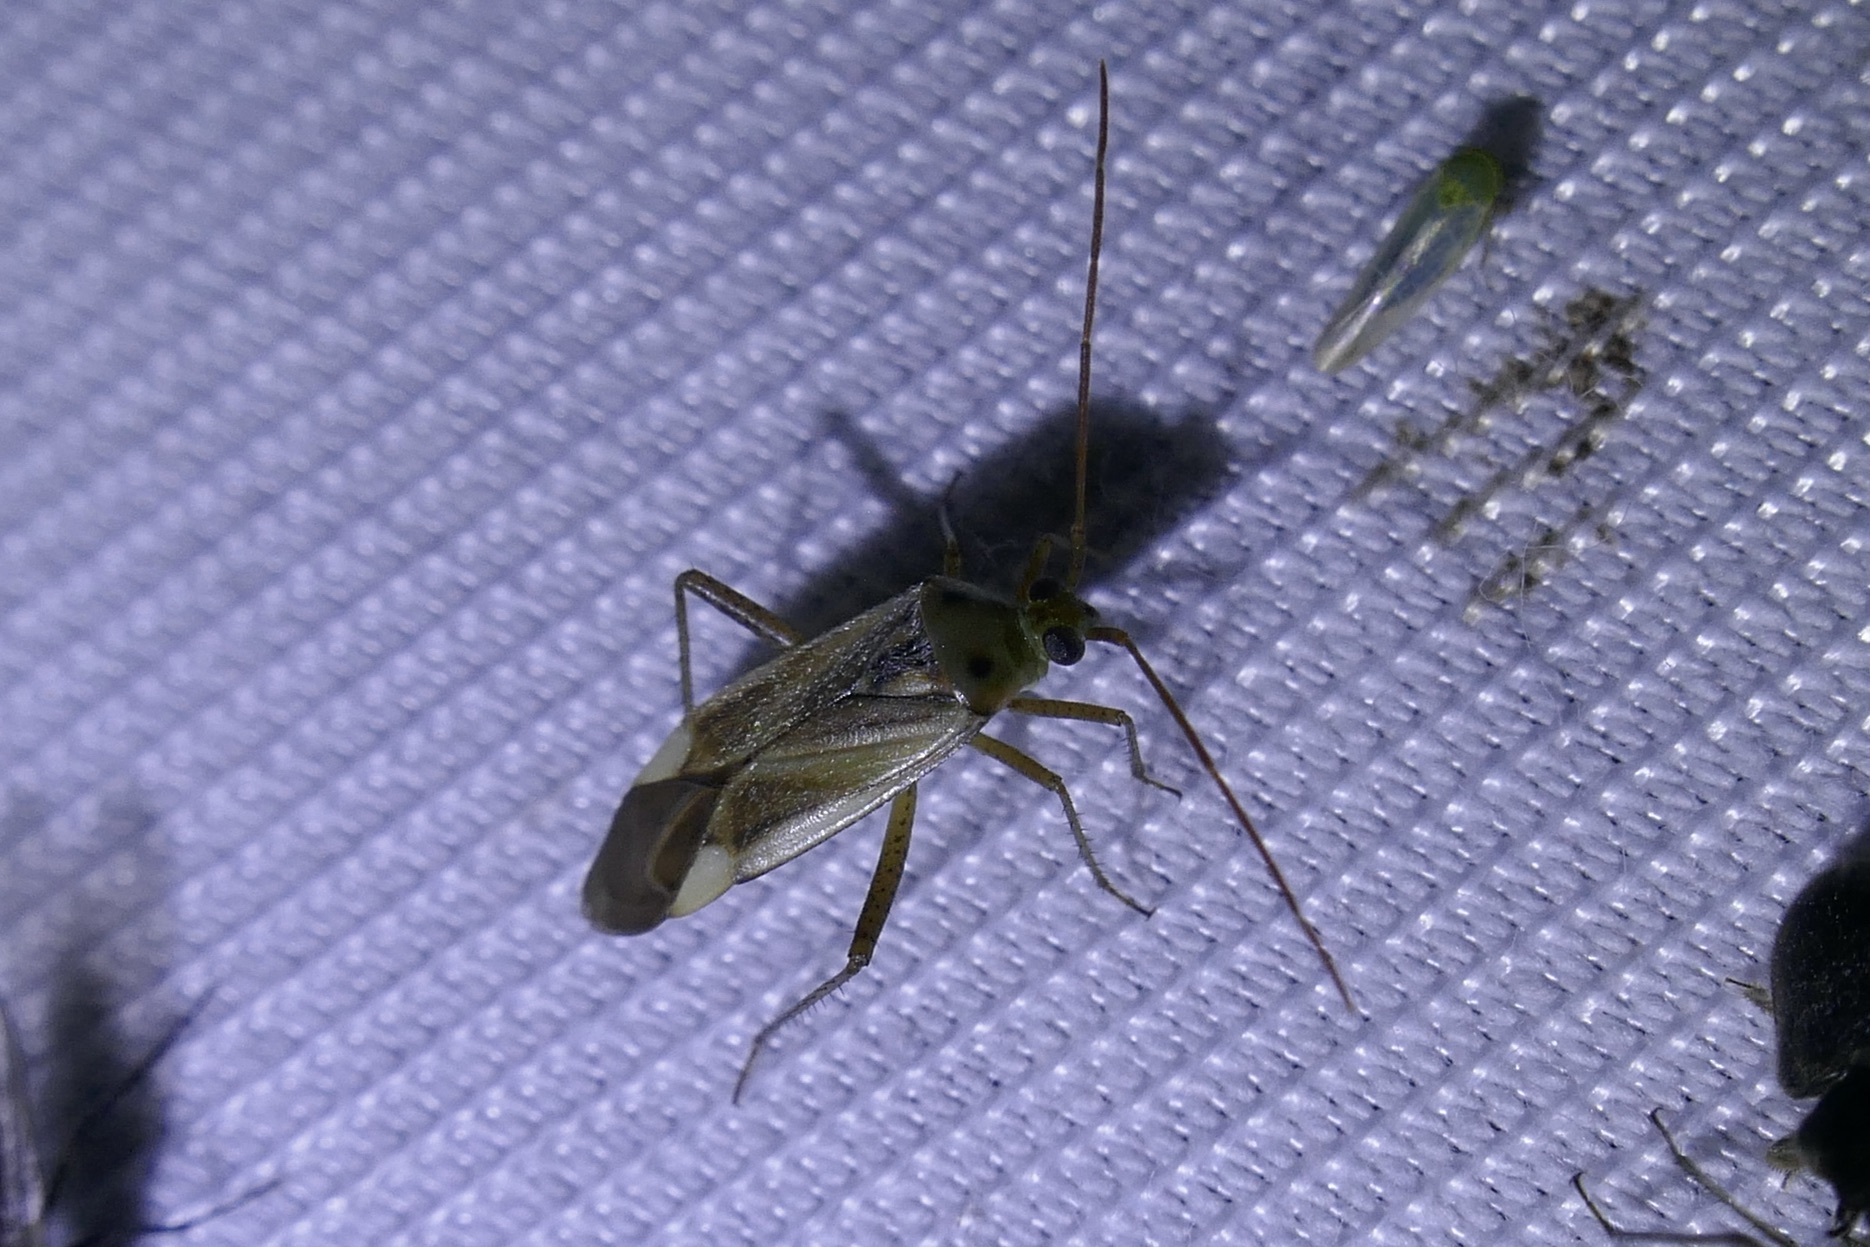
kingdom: Animalia
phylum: Arthropoda
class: Insecta
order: Hemiptera
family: Miridae
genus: Adelphocoris
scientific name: Adelphocoris lineolatus
